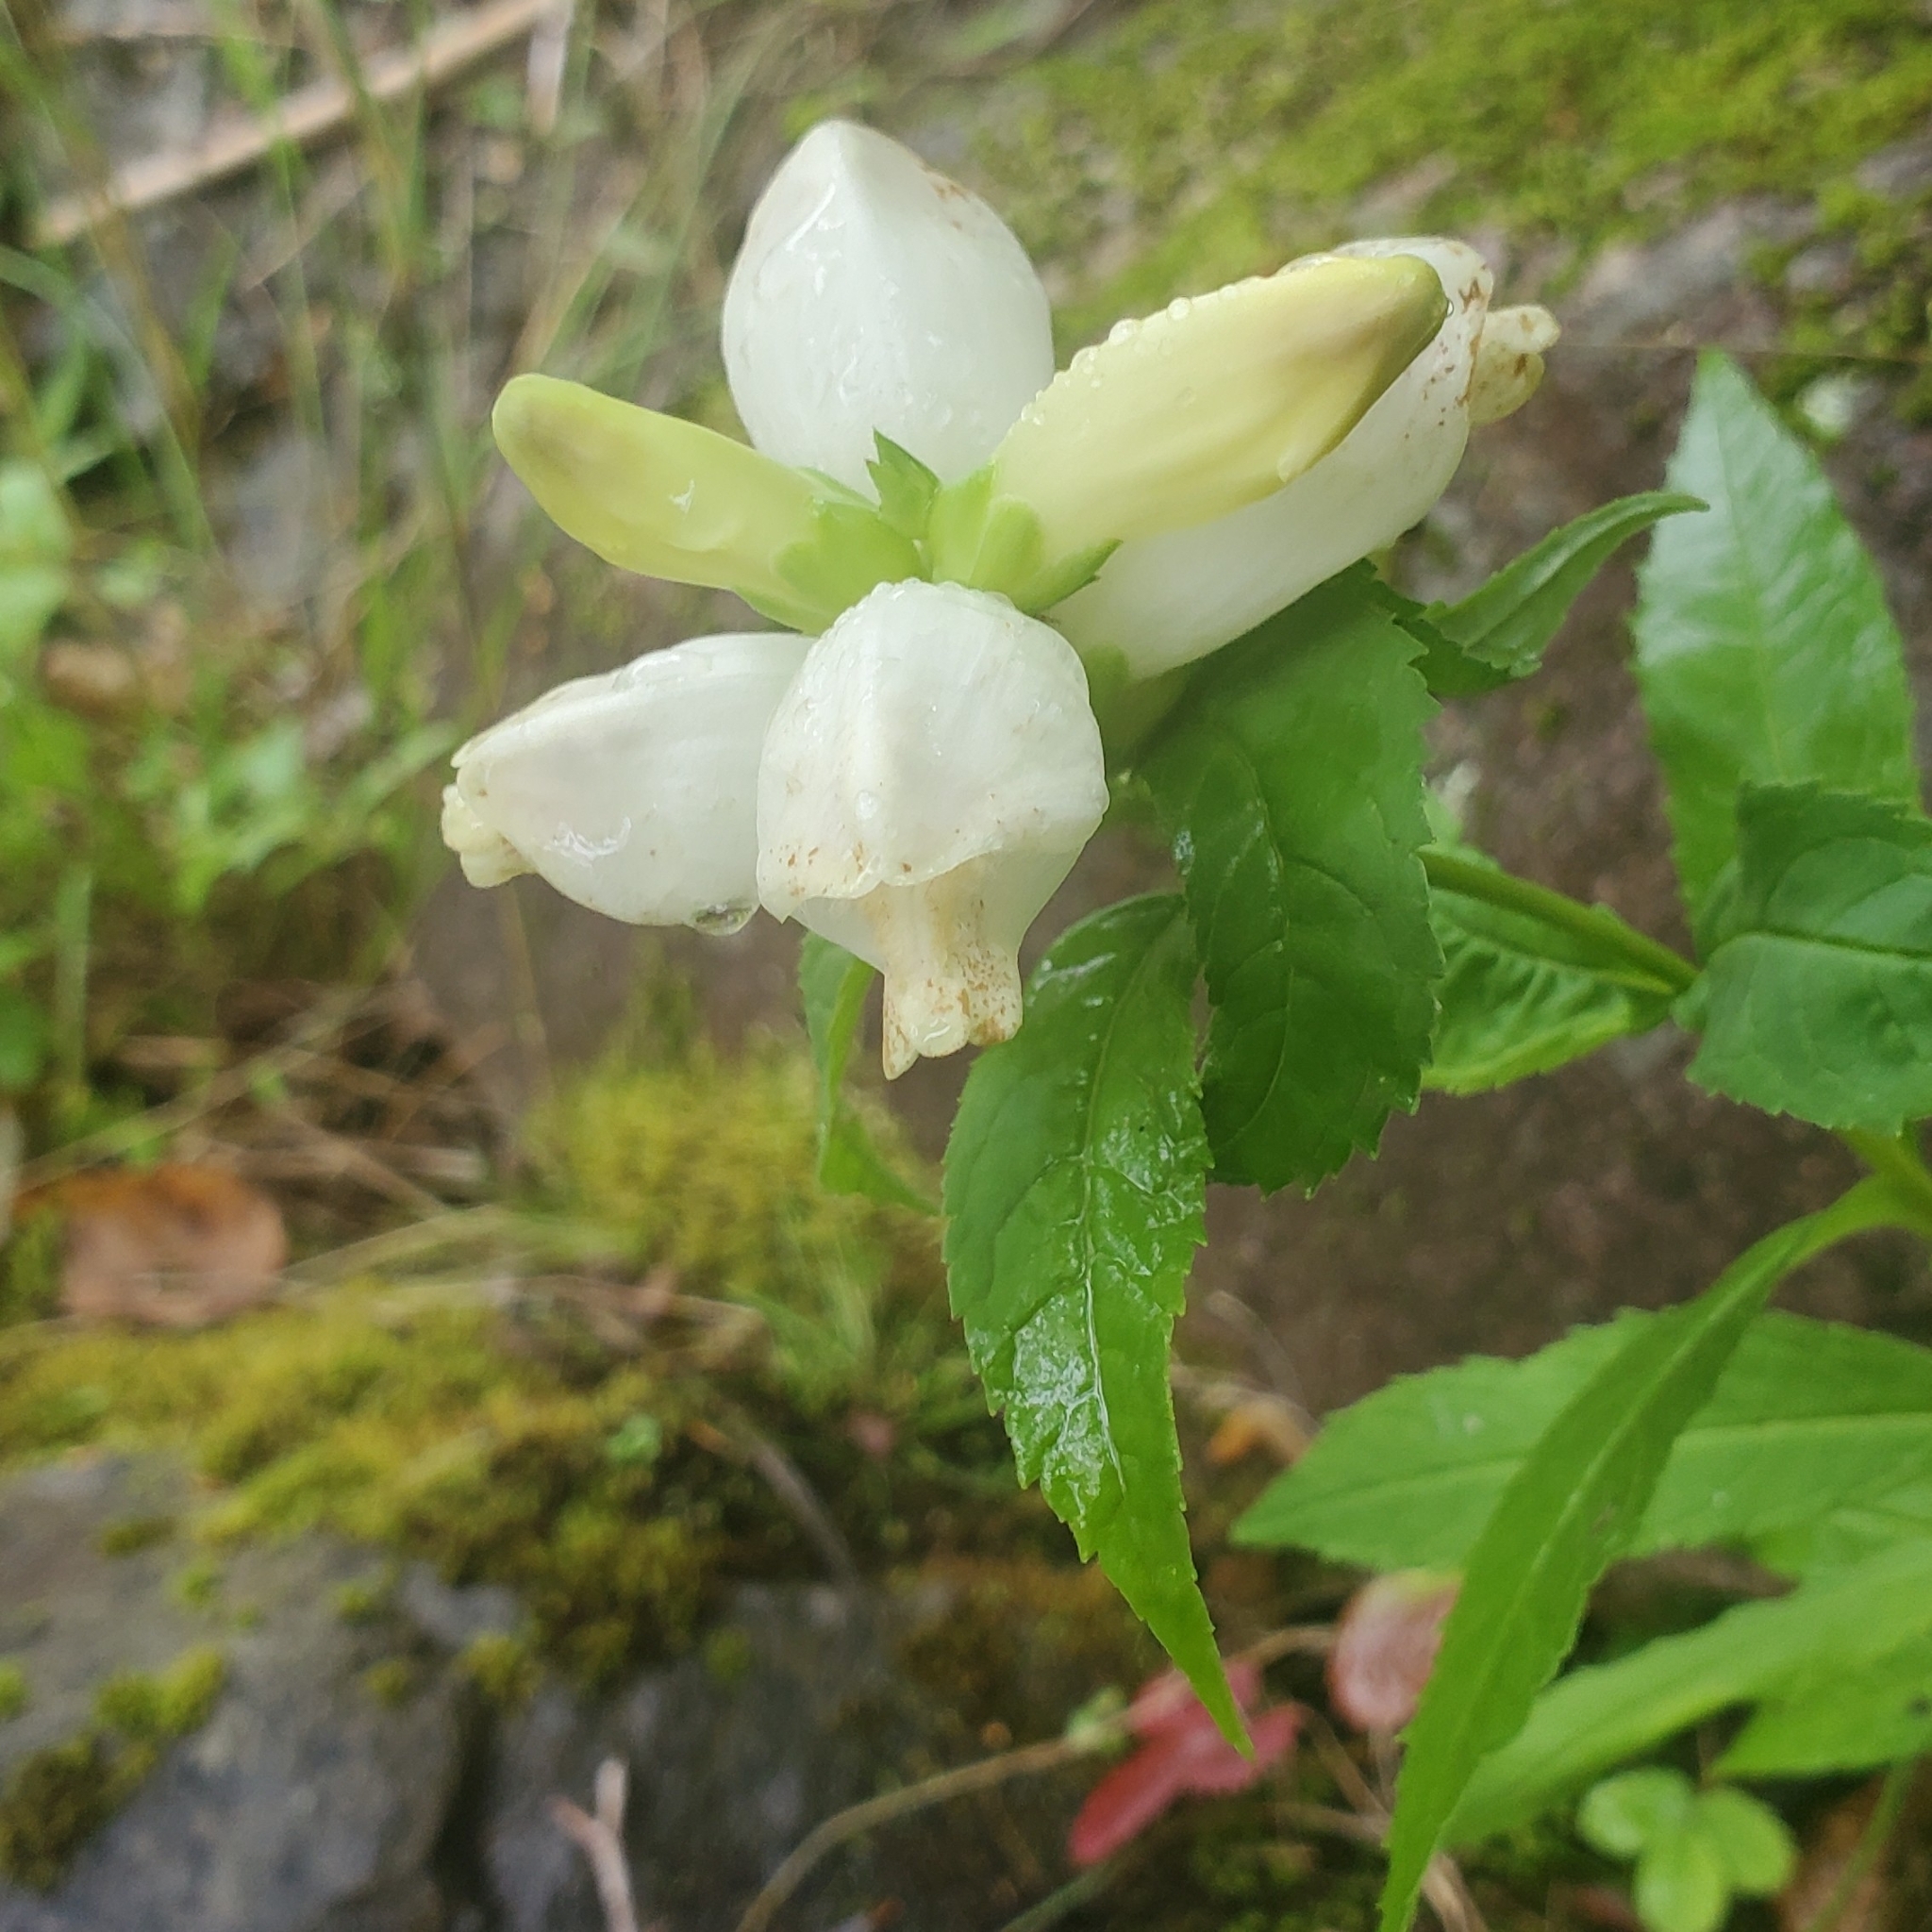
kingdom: Plantae
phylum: Tracheophyta
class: Magnoliopsida
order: Lamiales
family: Plantaginaceae
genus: Chelone
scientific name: Chelone glabra
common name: Snakehead
